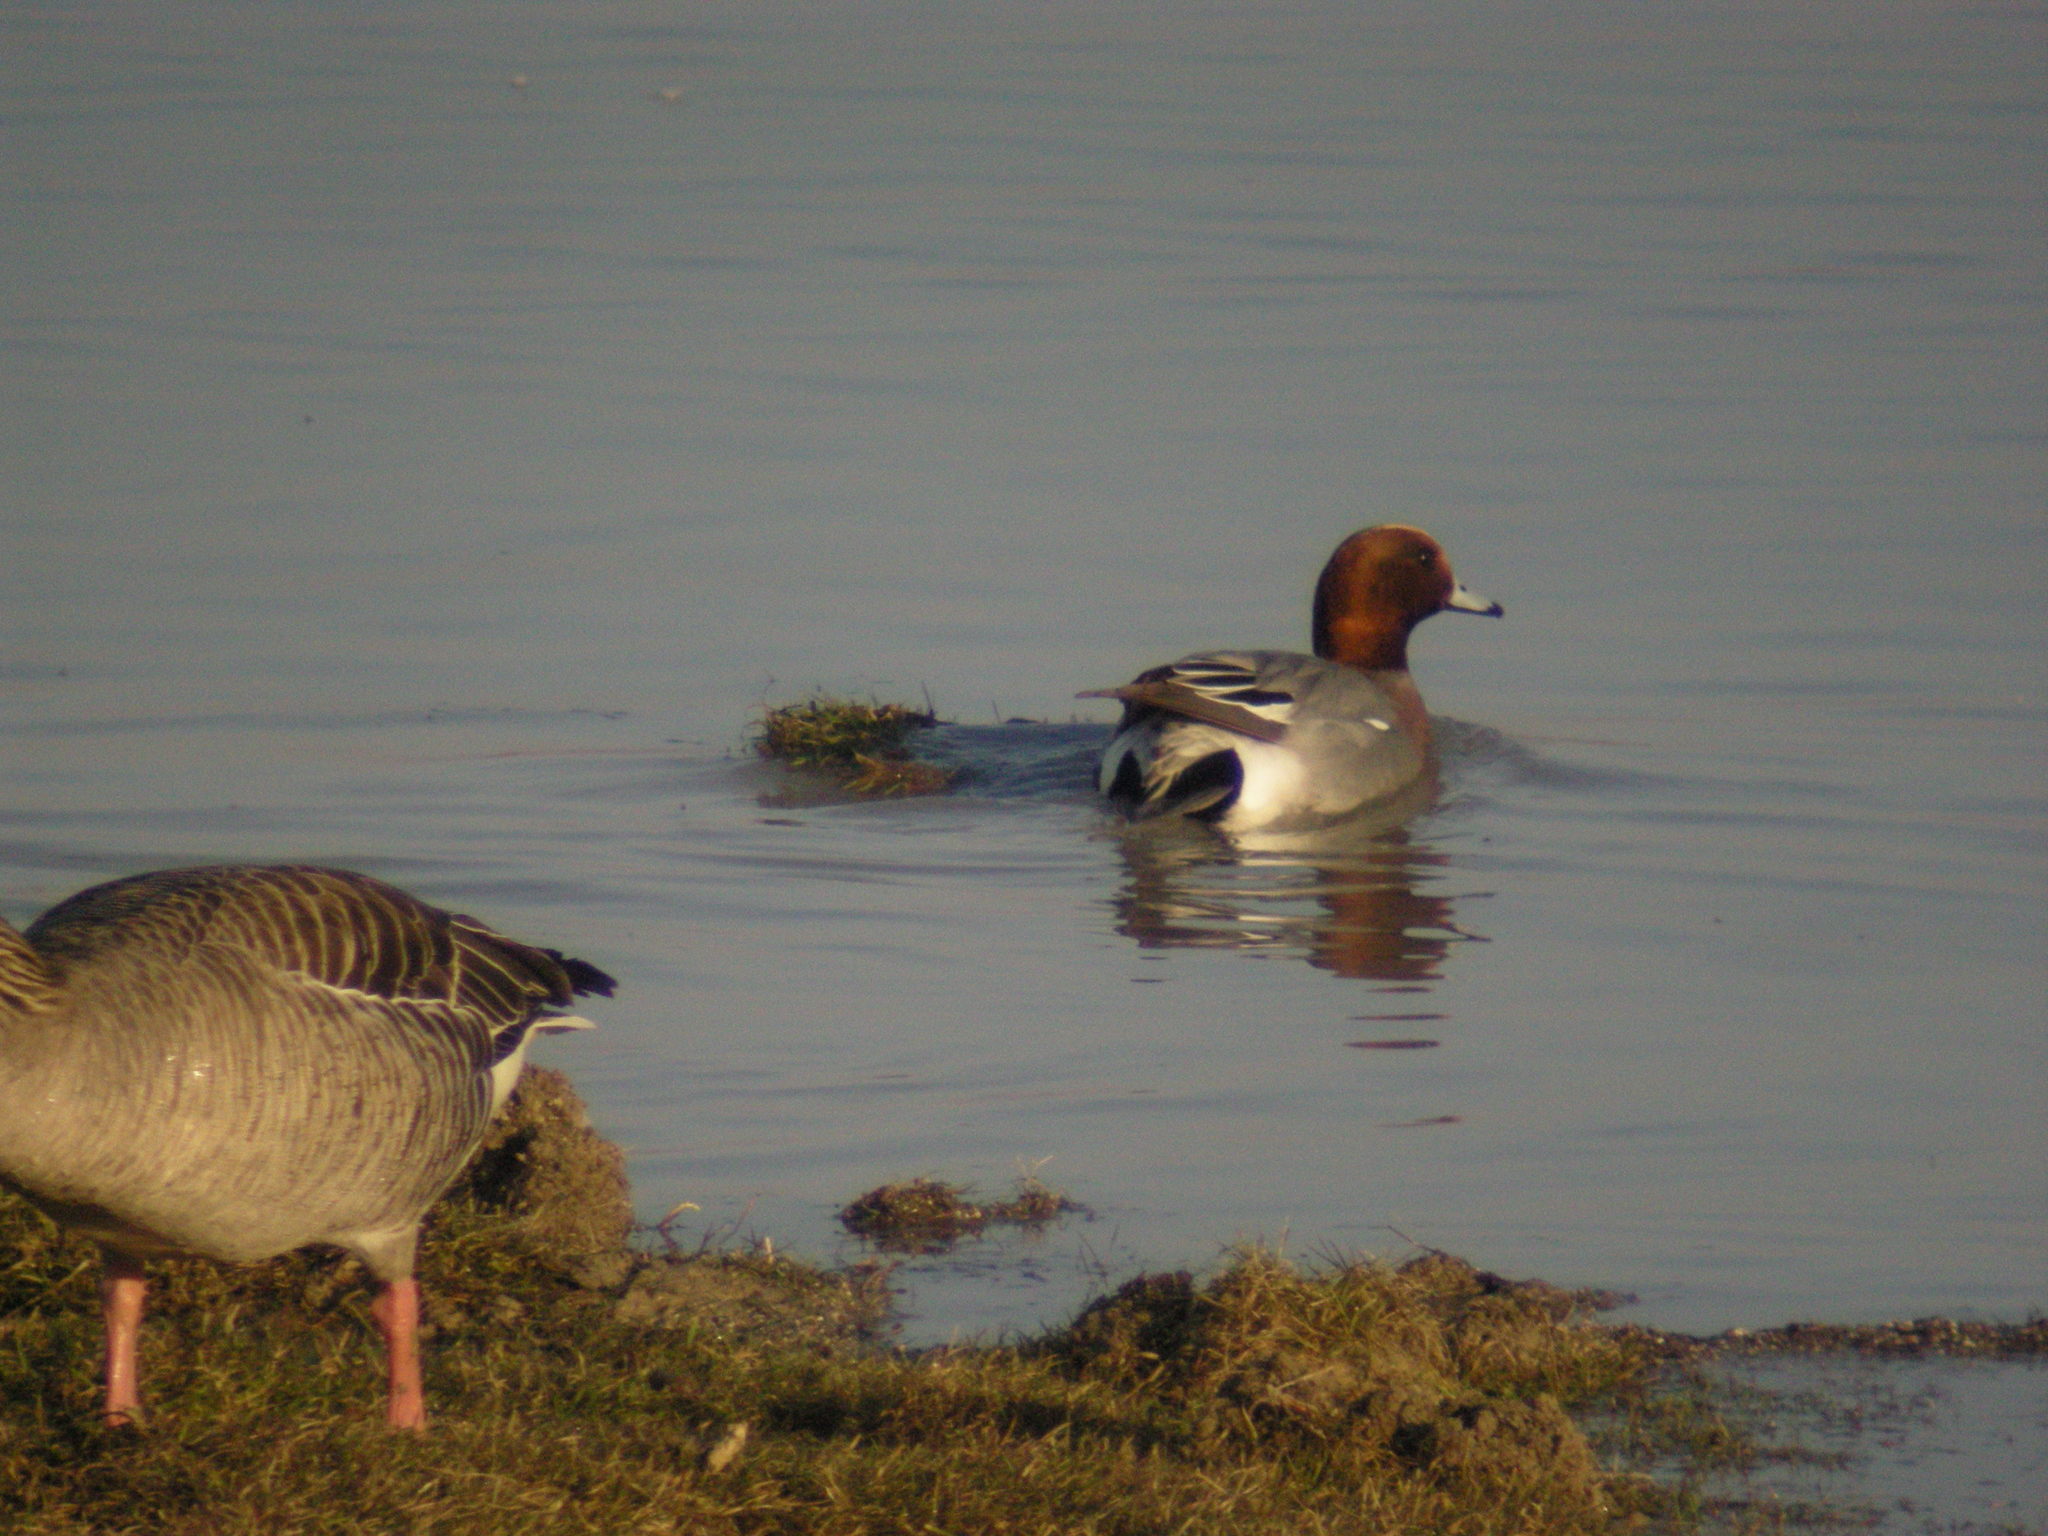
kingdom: Animalia
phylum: Chordata
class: Aves
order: Anseriformes
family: Anatidae
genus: Mareca
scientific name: Mareca penelope
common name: Eurasian wigeon
